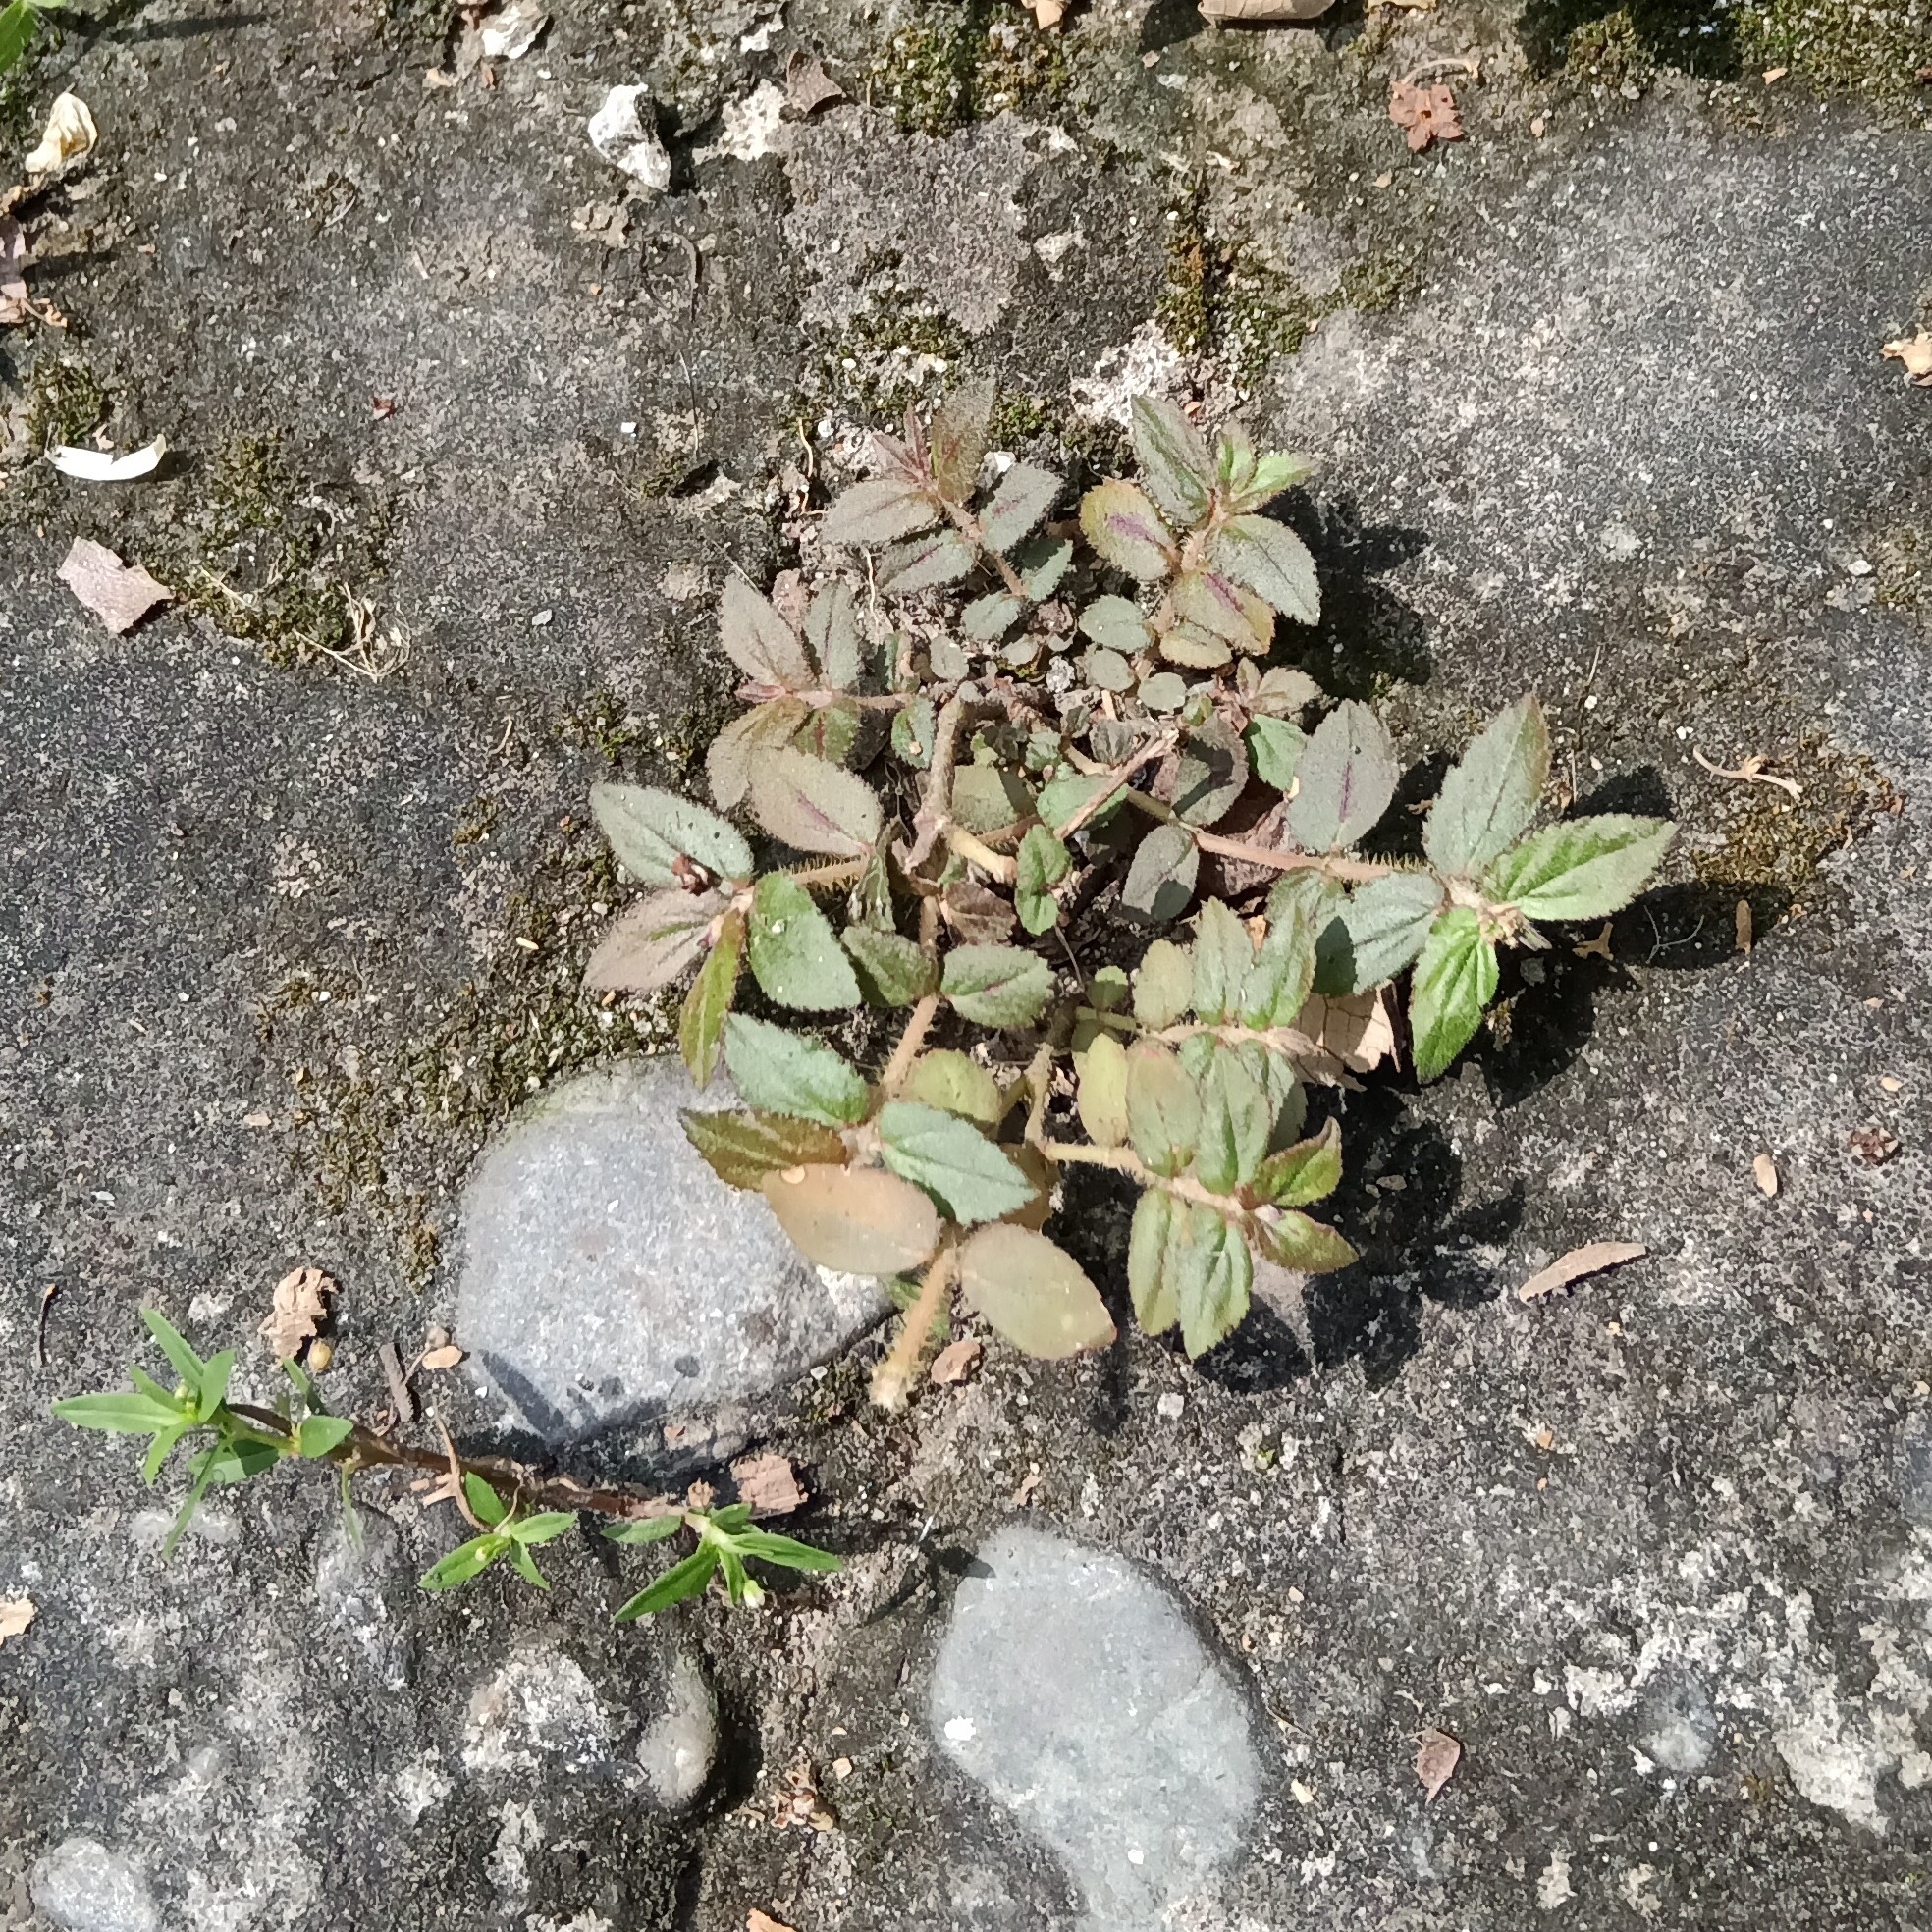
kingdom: Plantae
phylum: Tracheophyta
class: Magnoliopsida
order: Malpighiales
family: Euphorbiaceae
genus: Euphorbia
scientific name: Euphorbia hirta
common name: Pillpod sandmat
